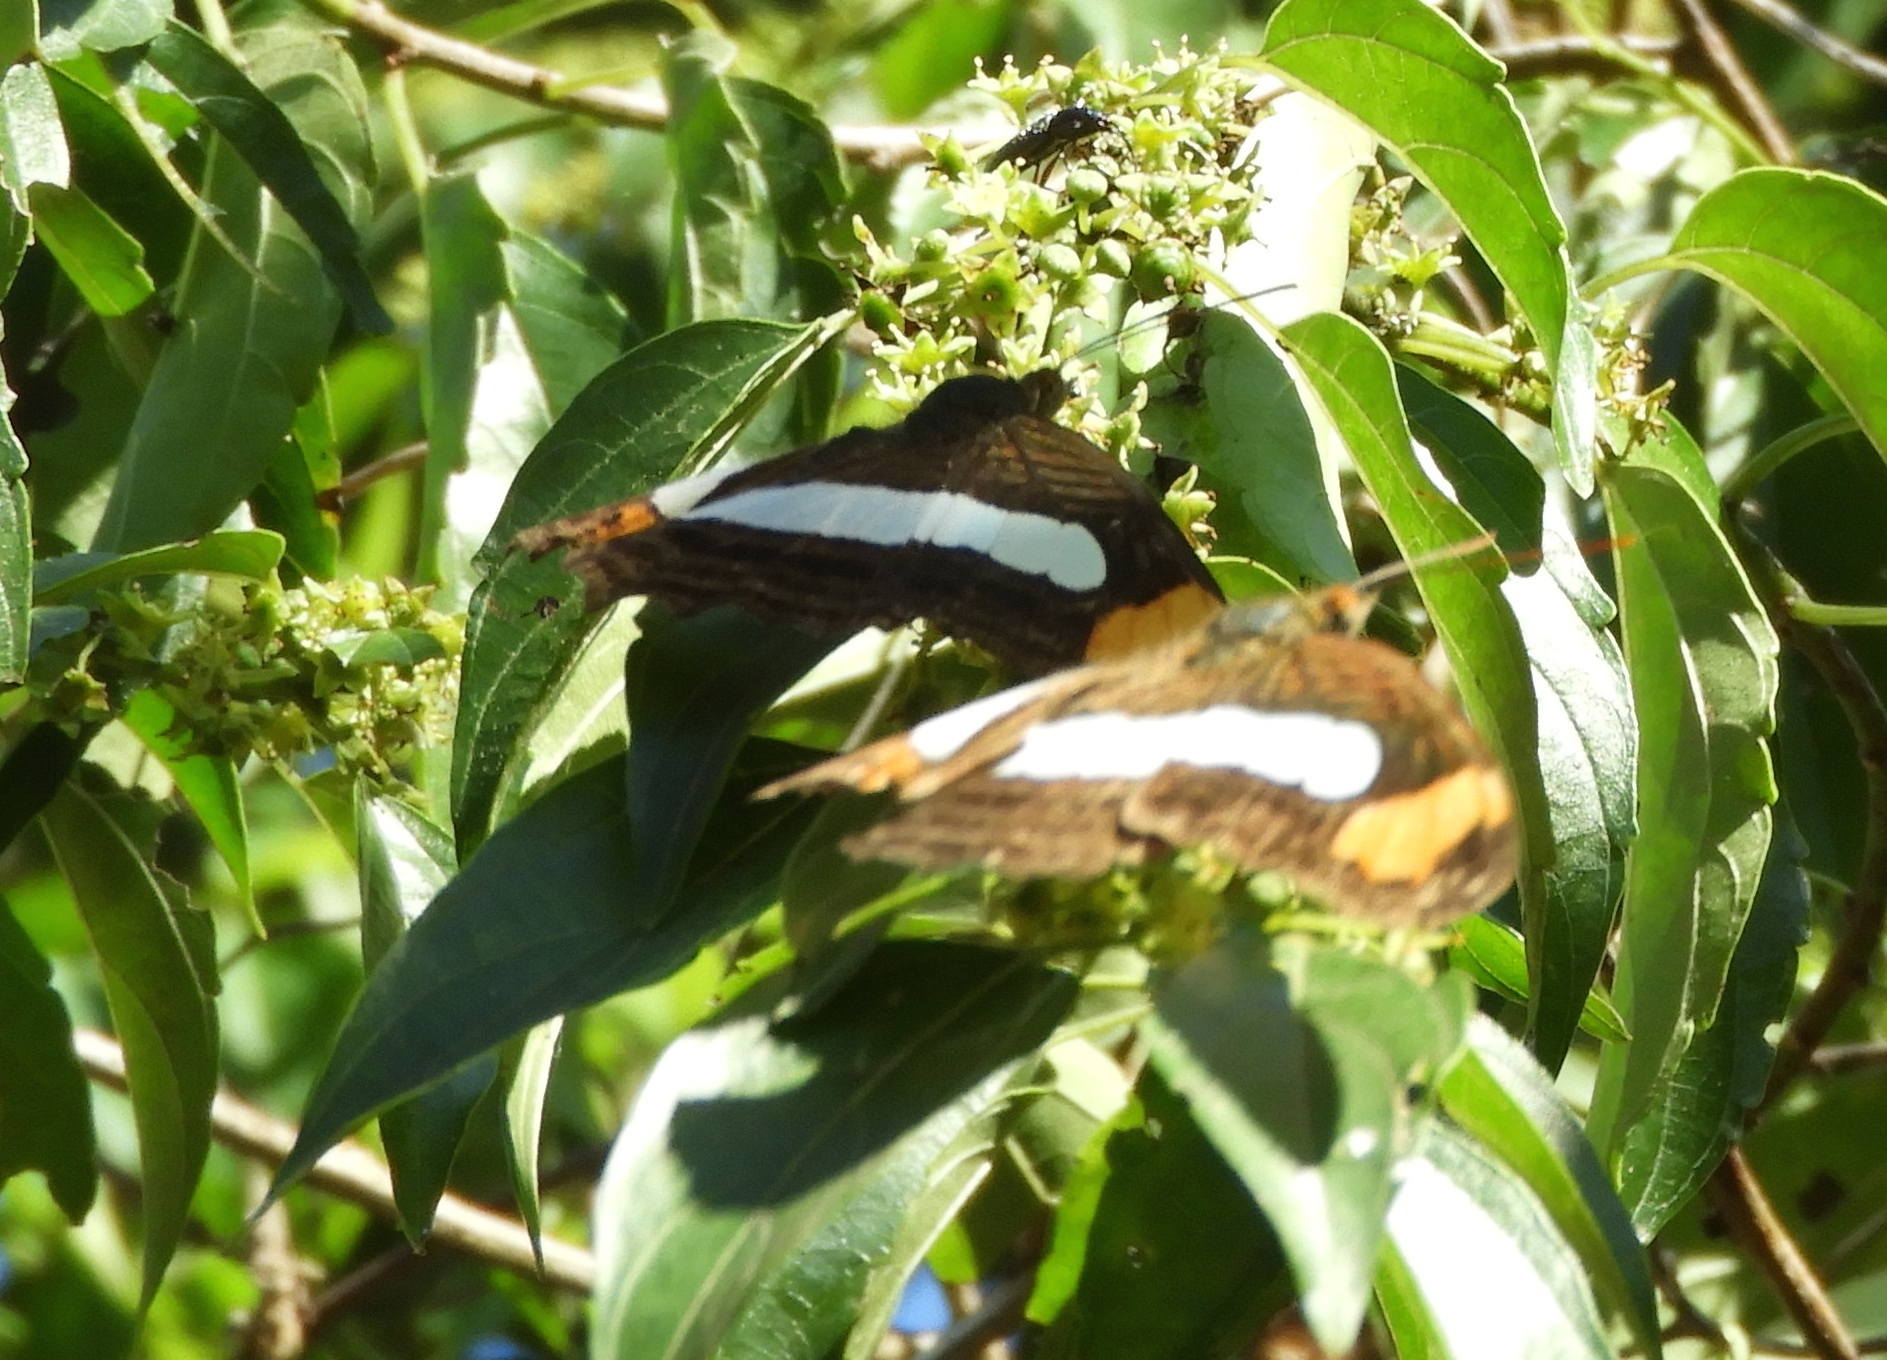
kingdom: Animalia
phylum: Arthropoda
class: Insecta
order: Lepidoptera
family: Nymphalidae
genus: Limenitis
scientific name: Limenitis iphiclus
